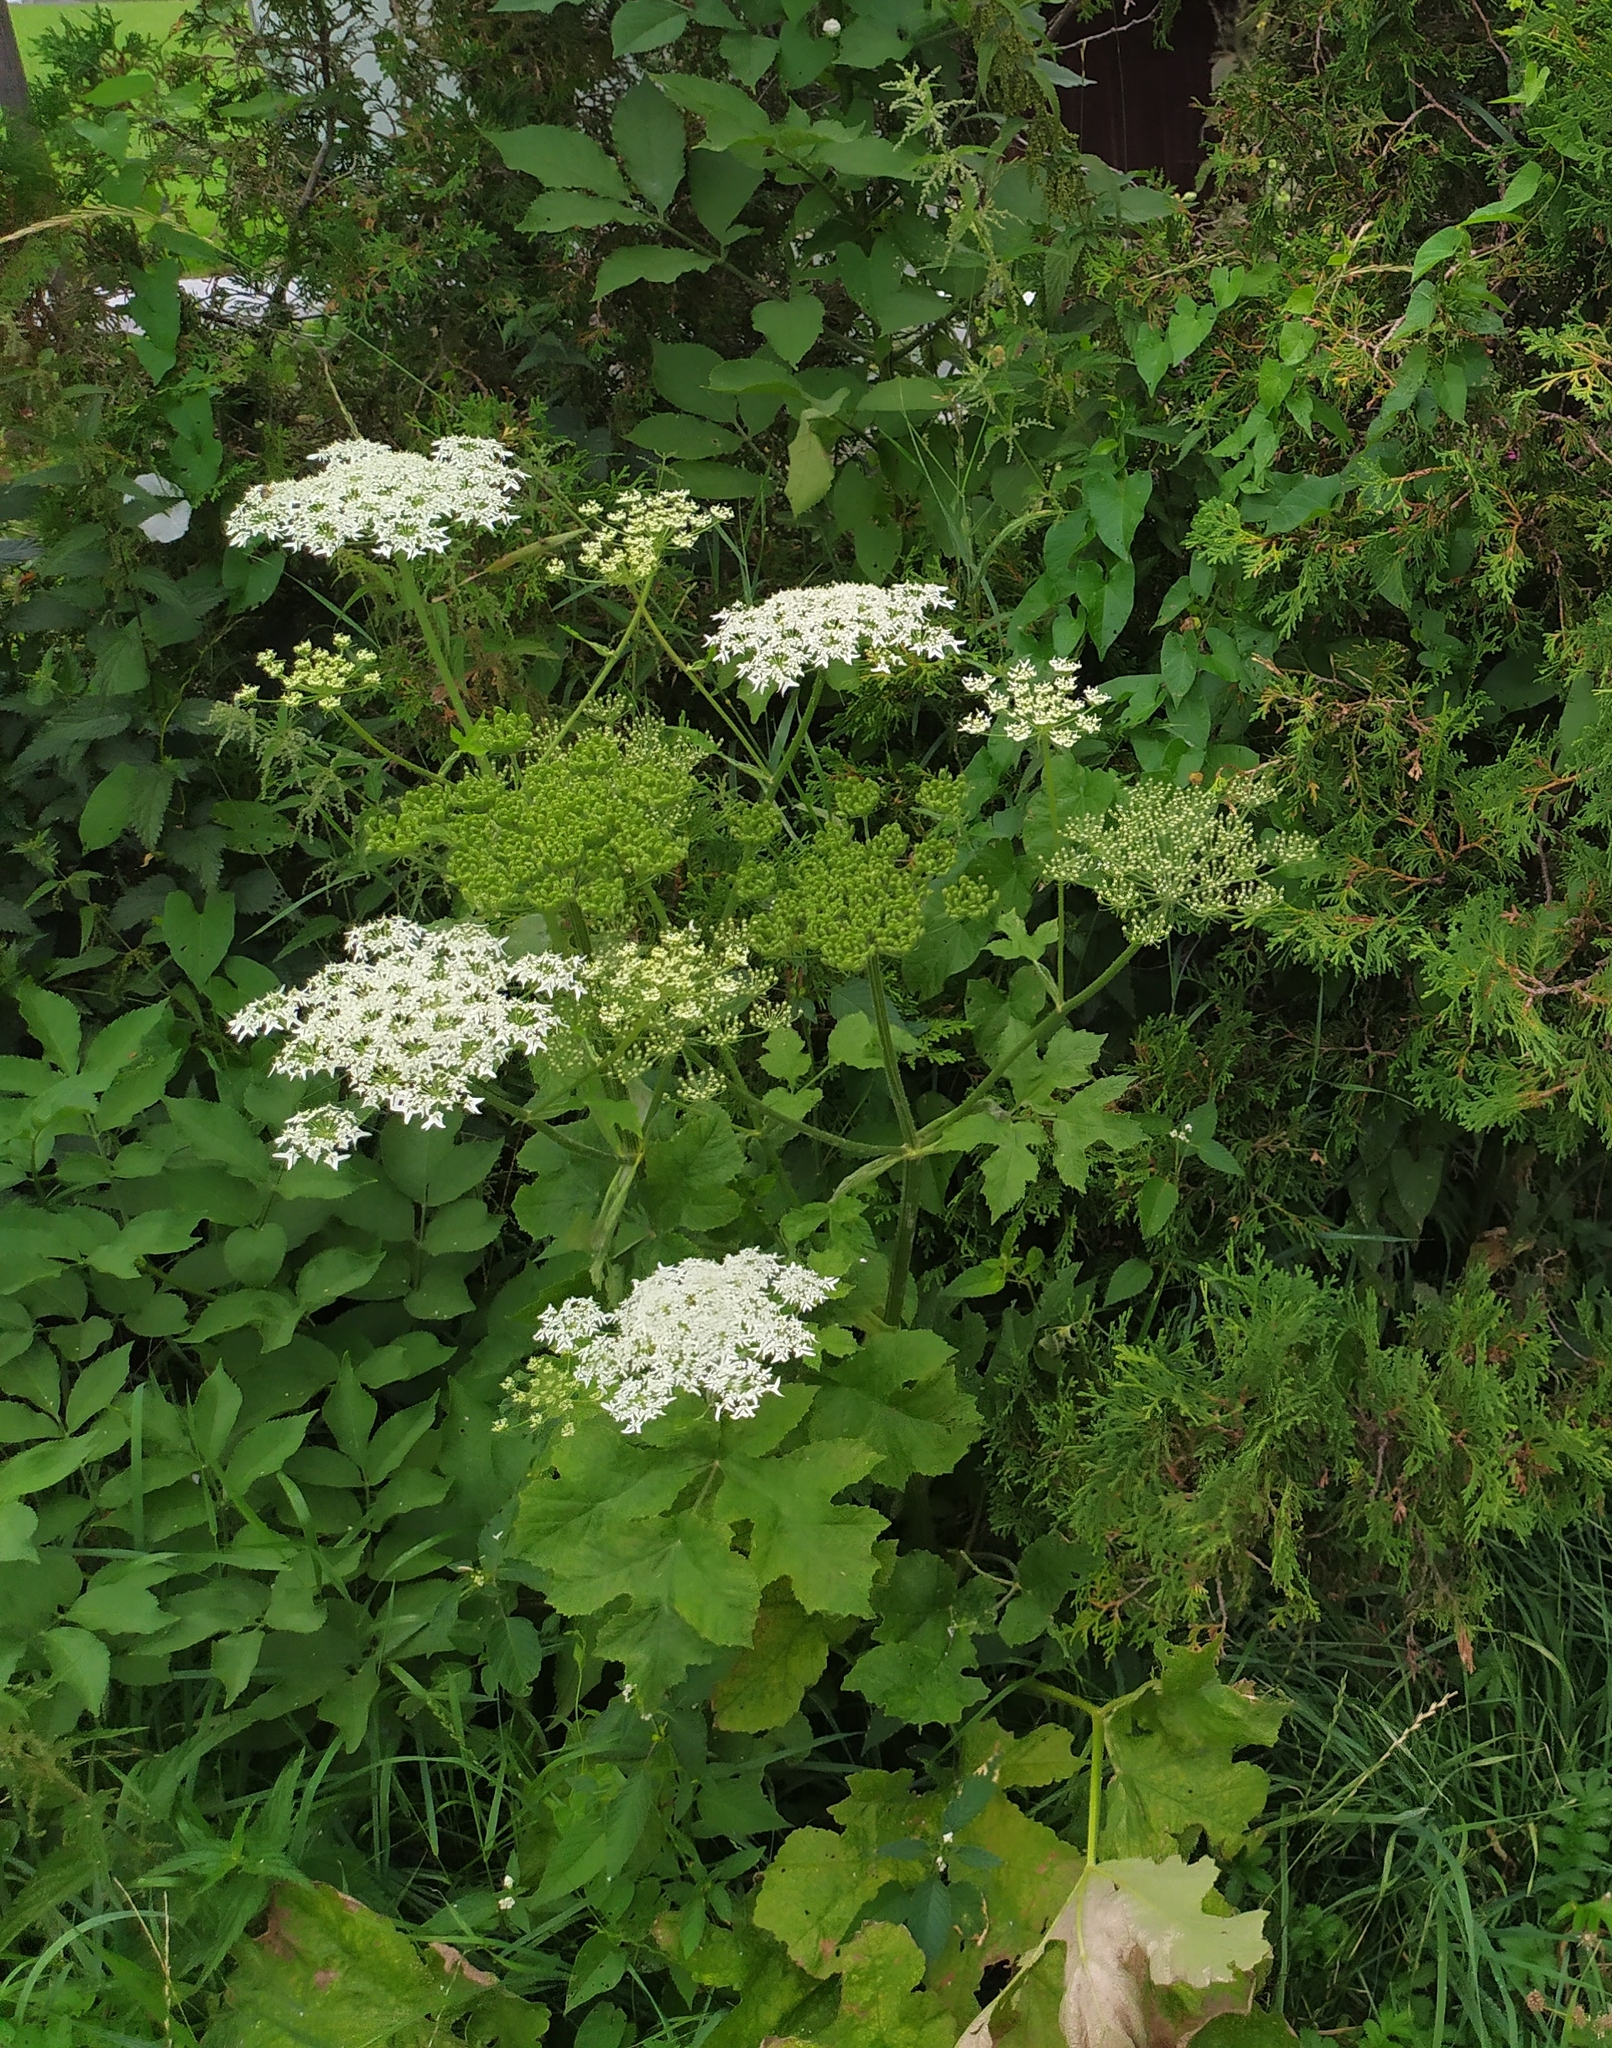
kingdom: Plantae
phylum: Tracheophyta
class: Magnoliopsida
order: Apiales
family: Apiaceae
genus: Heracleum
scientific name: Heracleum sphondylium
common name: Hogweed
